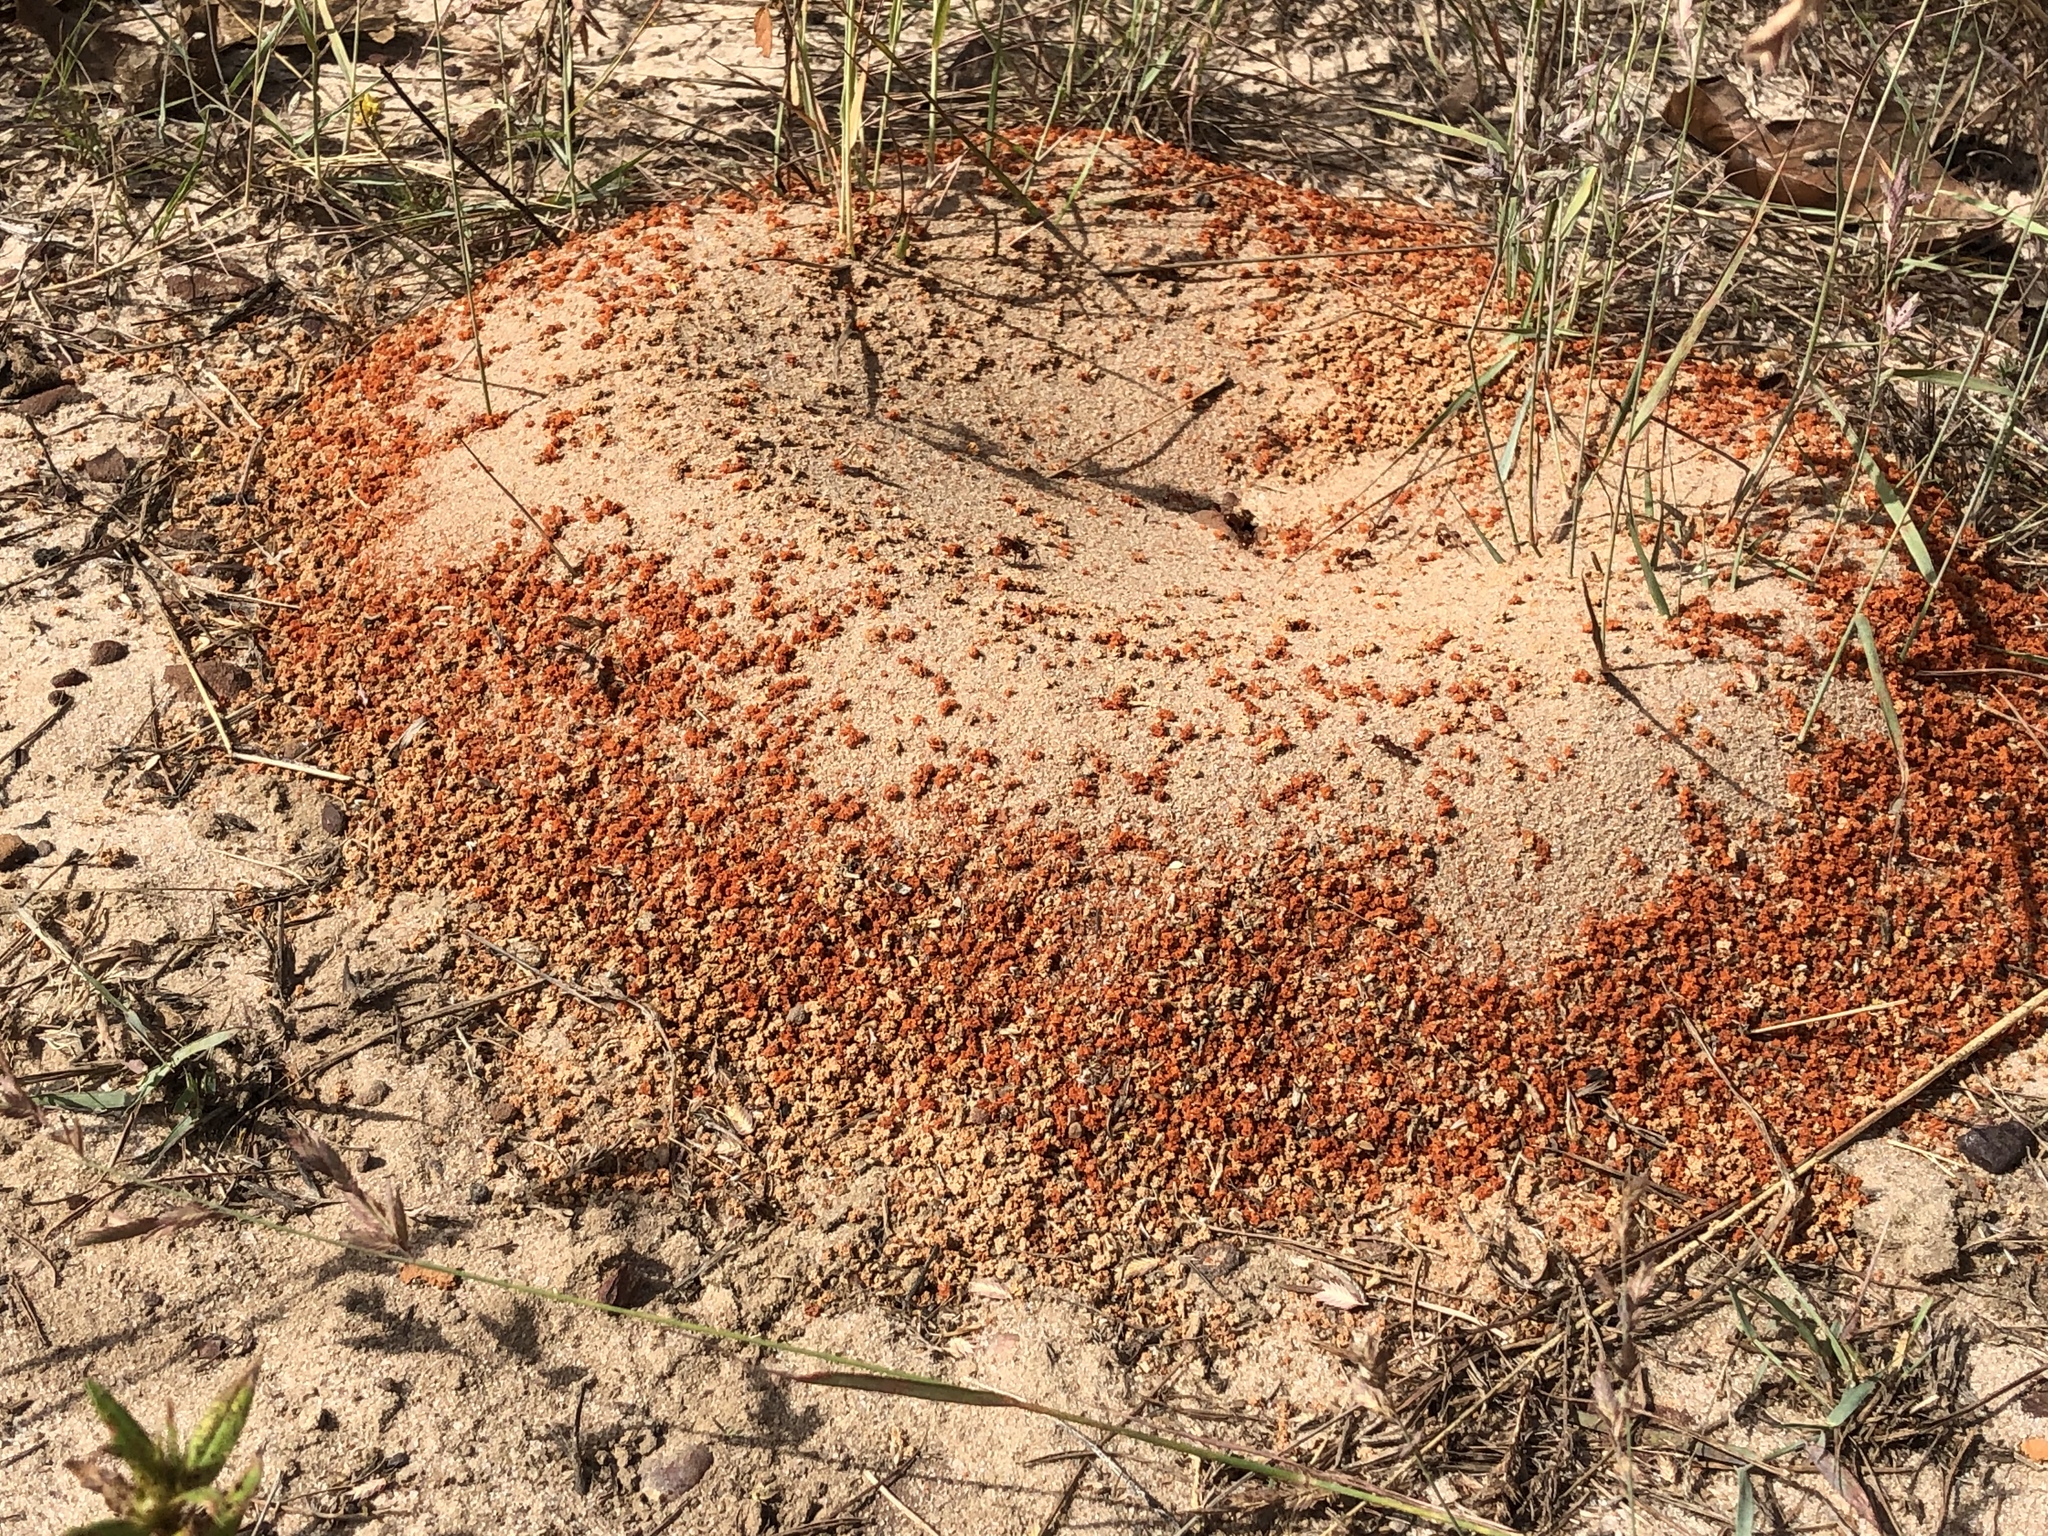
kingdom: Animalia
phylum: Arthropoda
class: Insecta
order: Hymenoptera
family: Formicidae
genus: Pogonomyrmex
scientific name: Pogonomyrmex barbatus
